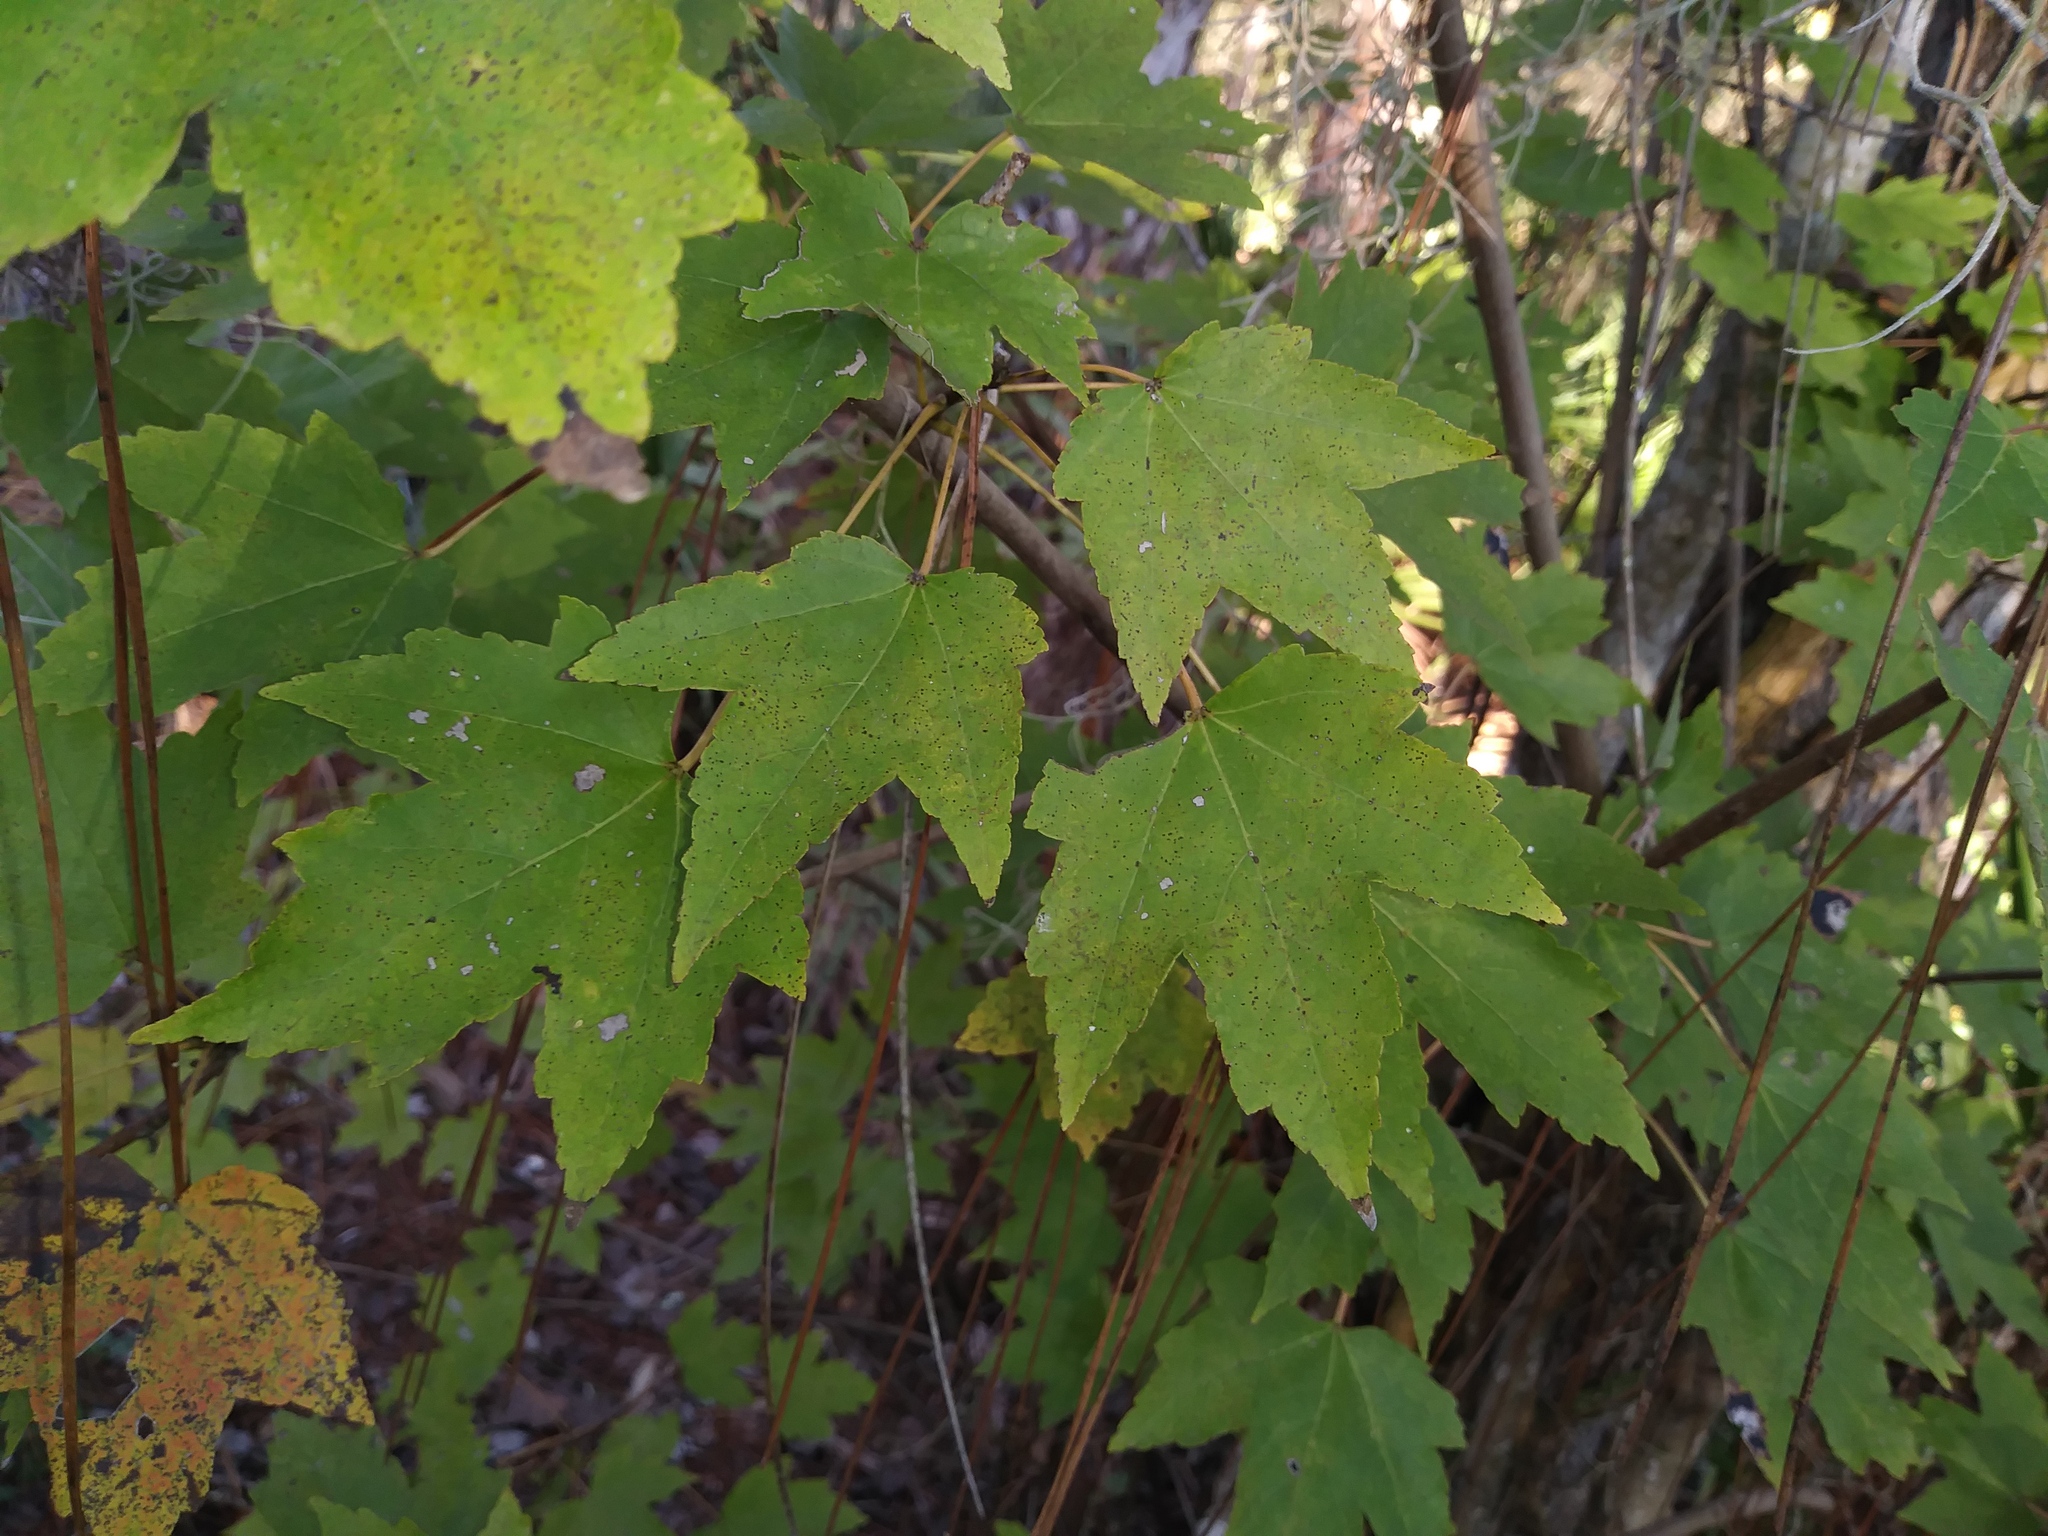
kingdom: Plantae
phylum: Tracheophyta
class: Magnoliopsida
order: Sapindales
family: Sapindaceae
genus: Acer
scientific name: Acer rubrum
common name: Red maple
